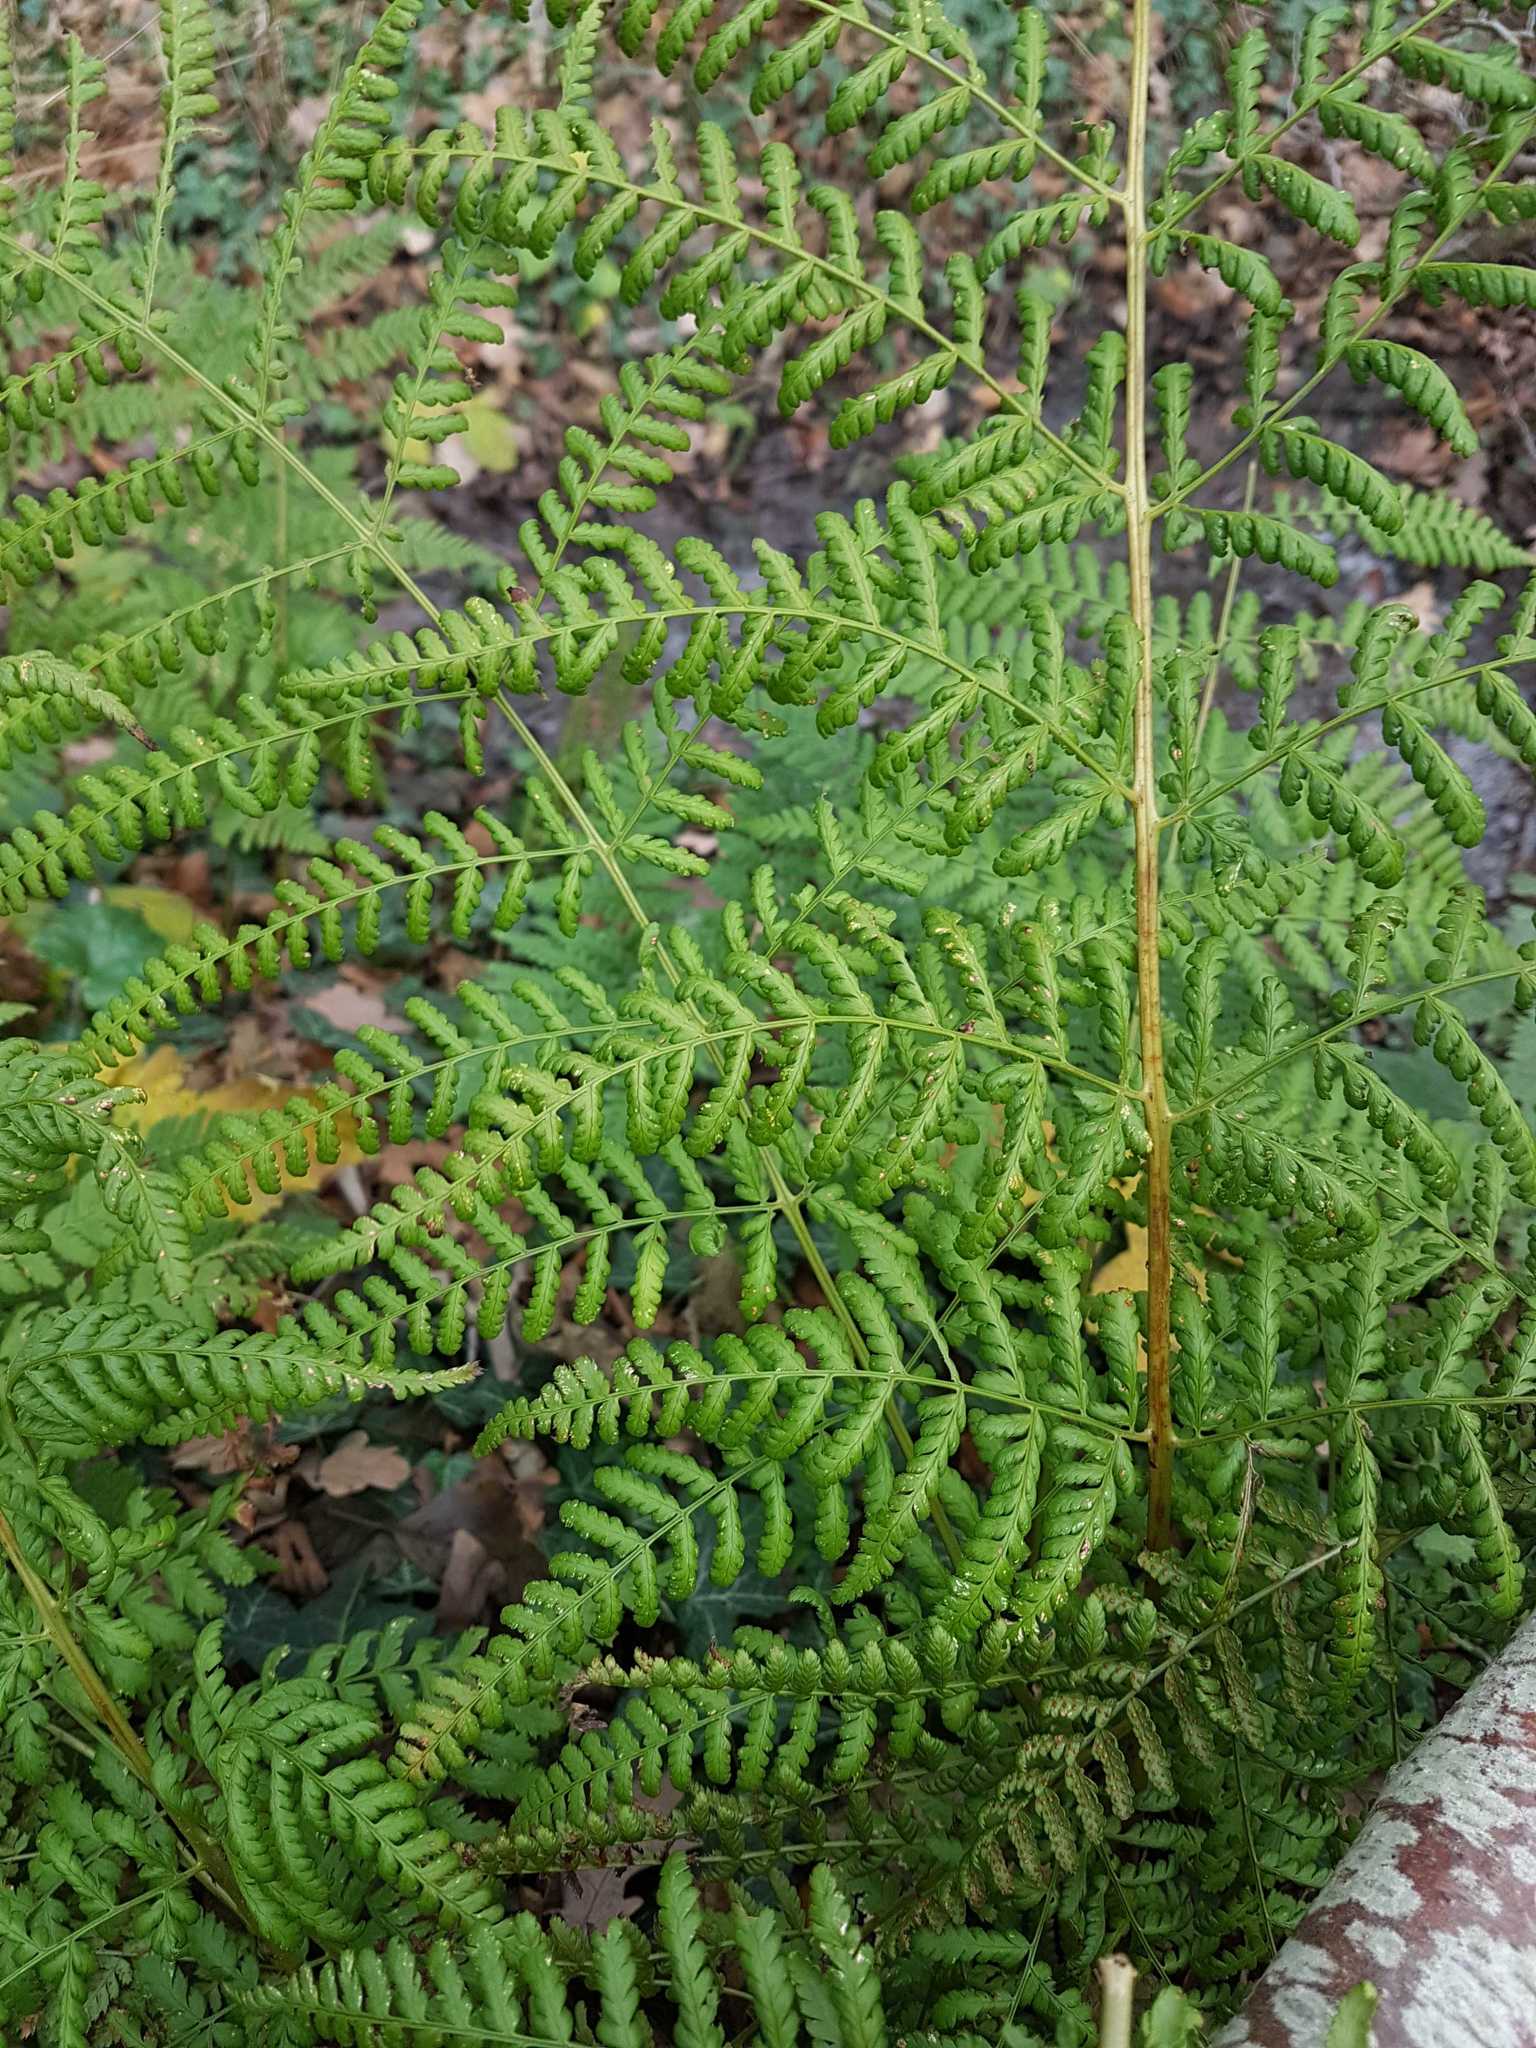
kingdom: Plantae
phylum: Tracheophyta
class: Polypodiopsida
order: Polypodiales
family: Dryopteridaceae
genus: Dryopteris
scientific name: Dryopteris dilatata
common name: Broad buckler-fern
